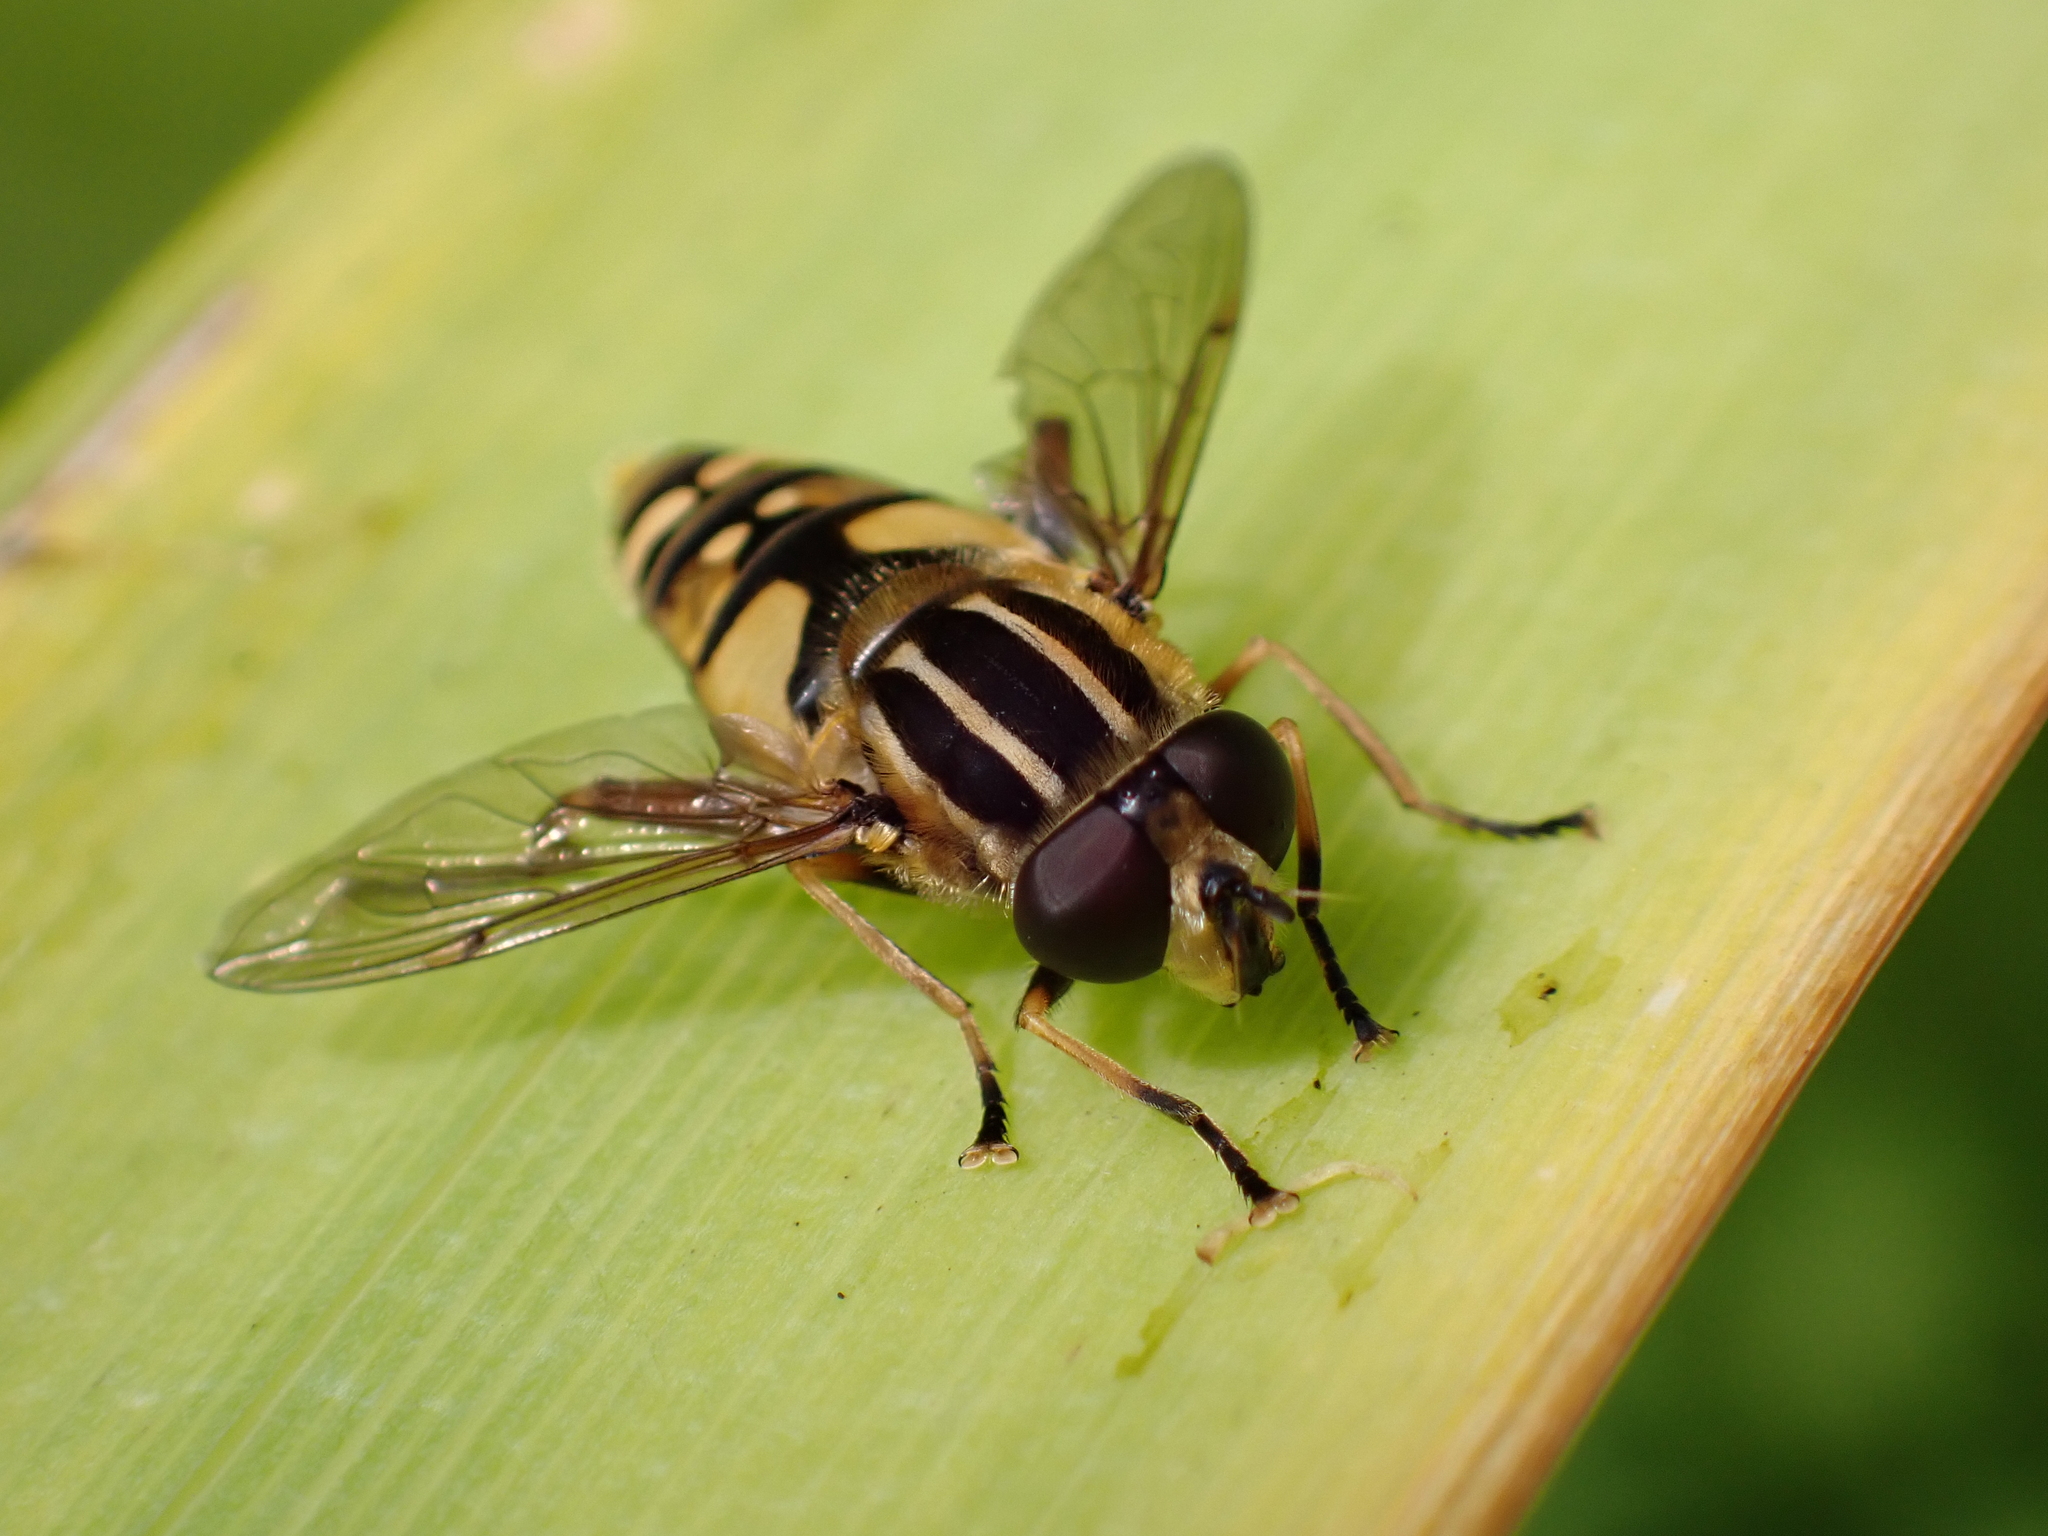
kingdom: Animalia
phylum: Arthropoda
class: Insecta
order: Diptera
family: Syrphidae
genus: Helophilus
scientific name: Helophilus pendulus
